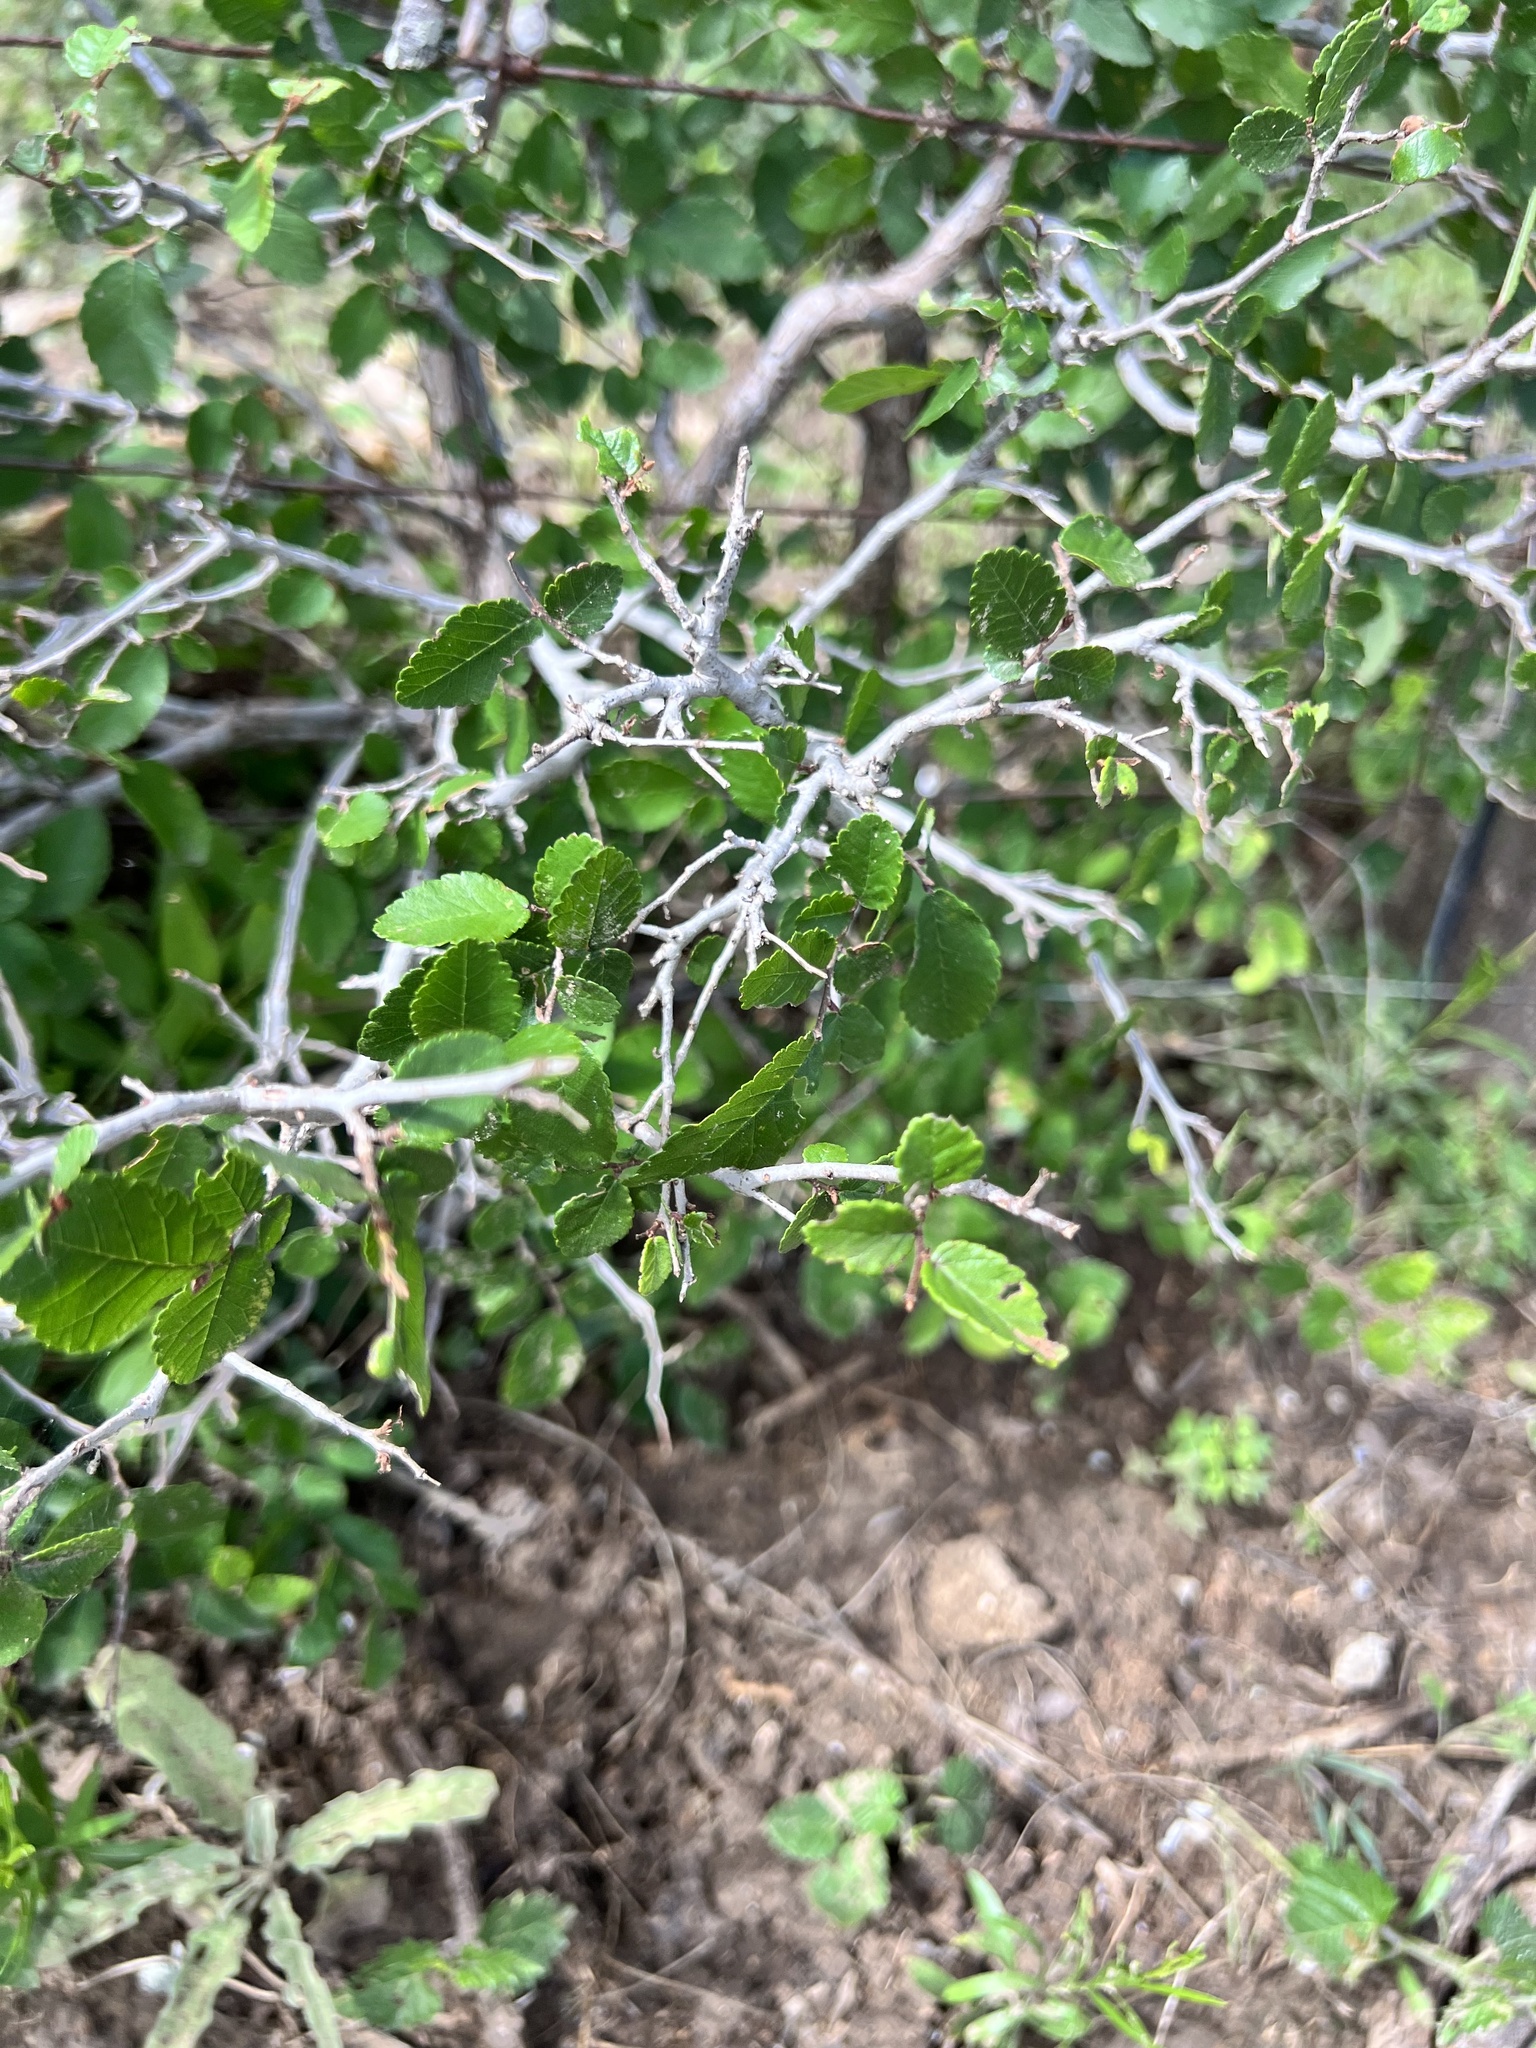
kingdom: Plantae
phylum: Tracheophyta
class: Magnoliopsida
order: Rosales
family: Ulmaceae
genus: Ulmus
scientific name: Ulmus crassifolia
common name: Basket elm
